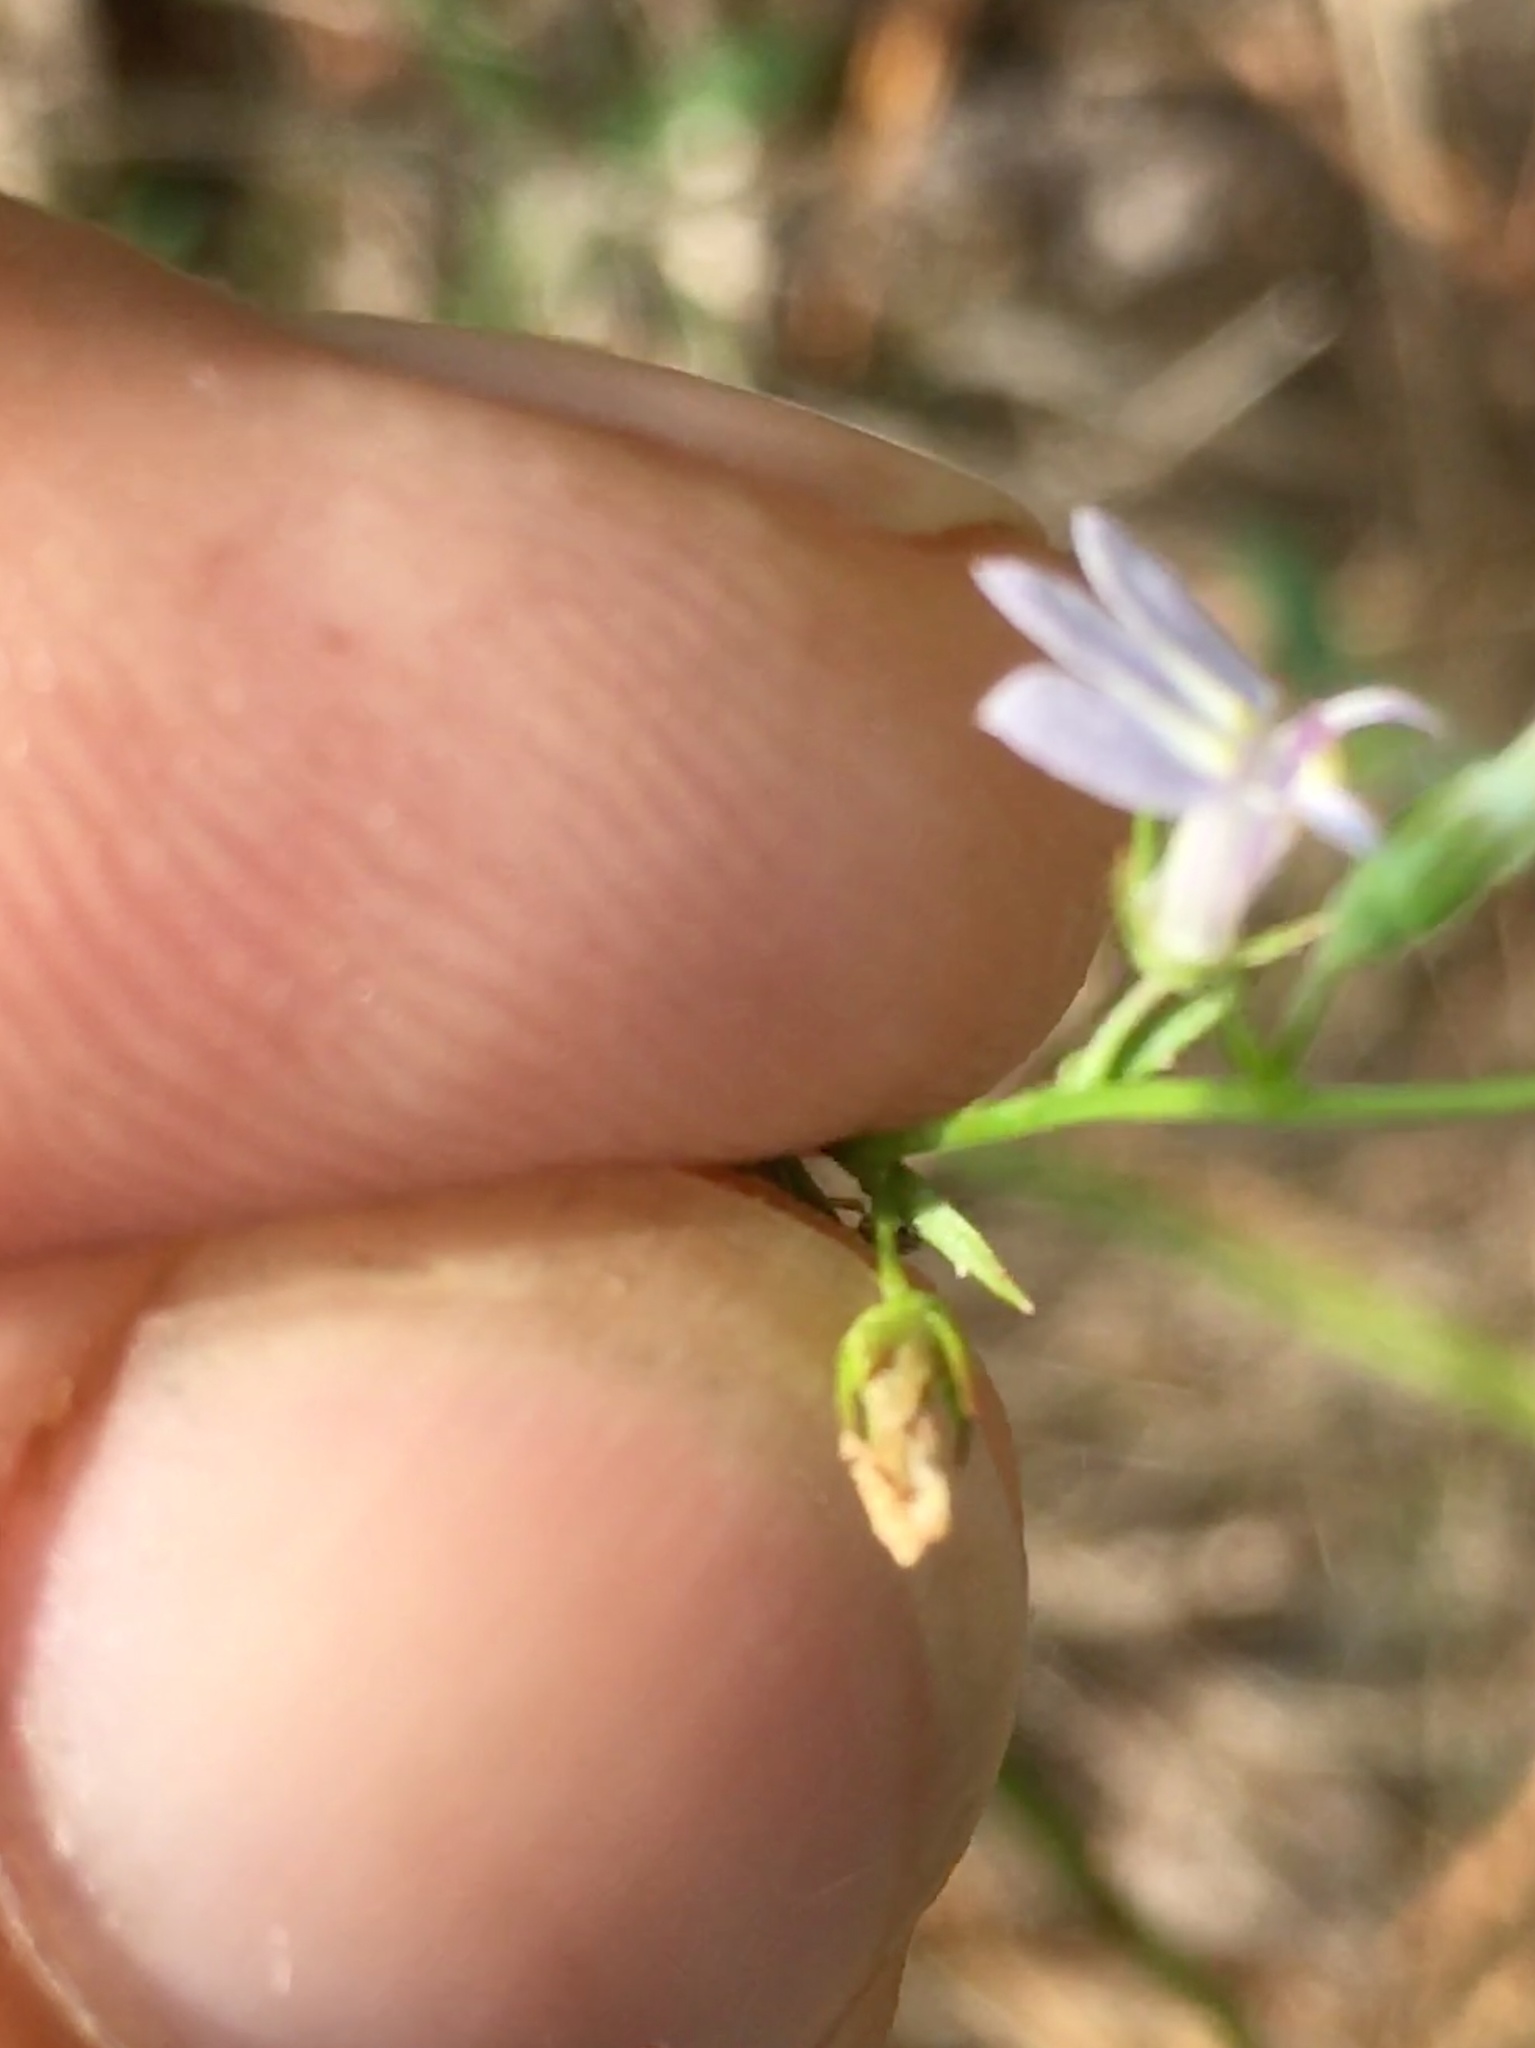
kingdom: Plantae
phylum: Tracheophyta
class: Magnoliopsida
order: Asterales
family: Campanulaceae
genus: Lobelia
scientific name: Lobelia nuttallii
